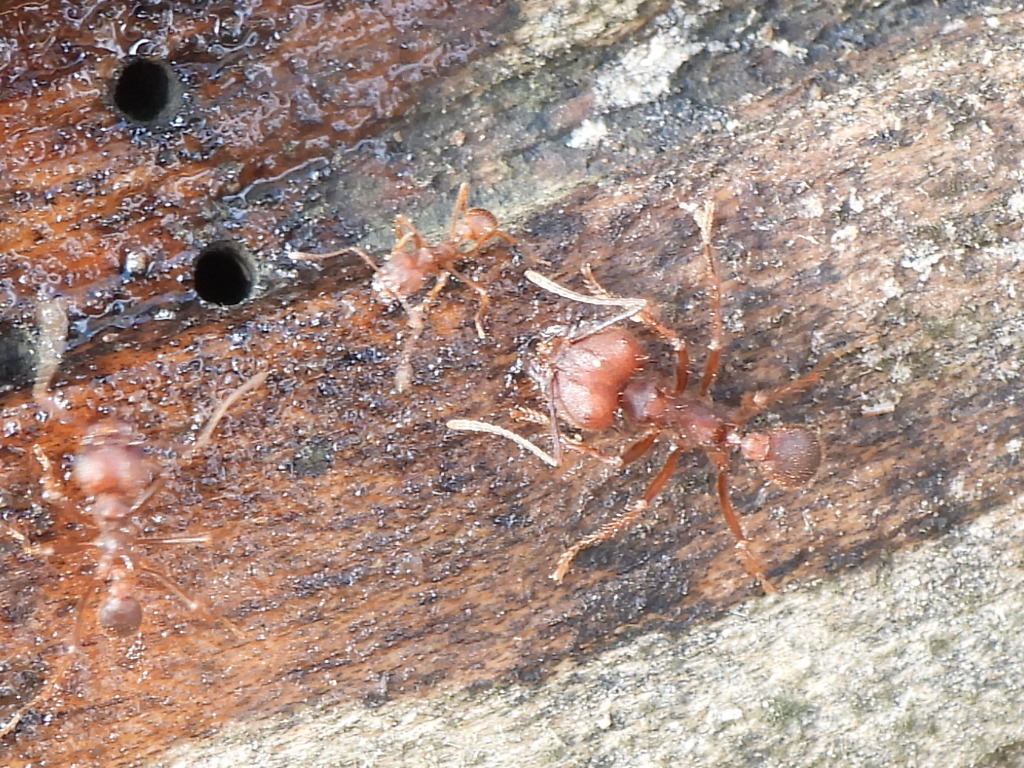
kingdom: Animalia
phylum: Arthropoda
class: Insecta
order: Hymenoptera
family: Formicidae
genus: Atta
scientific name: Atta texana
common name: Texas leafcutting ant
